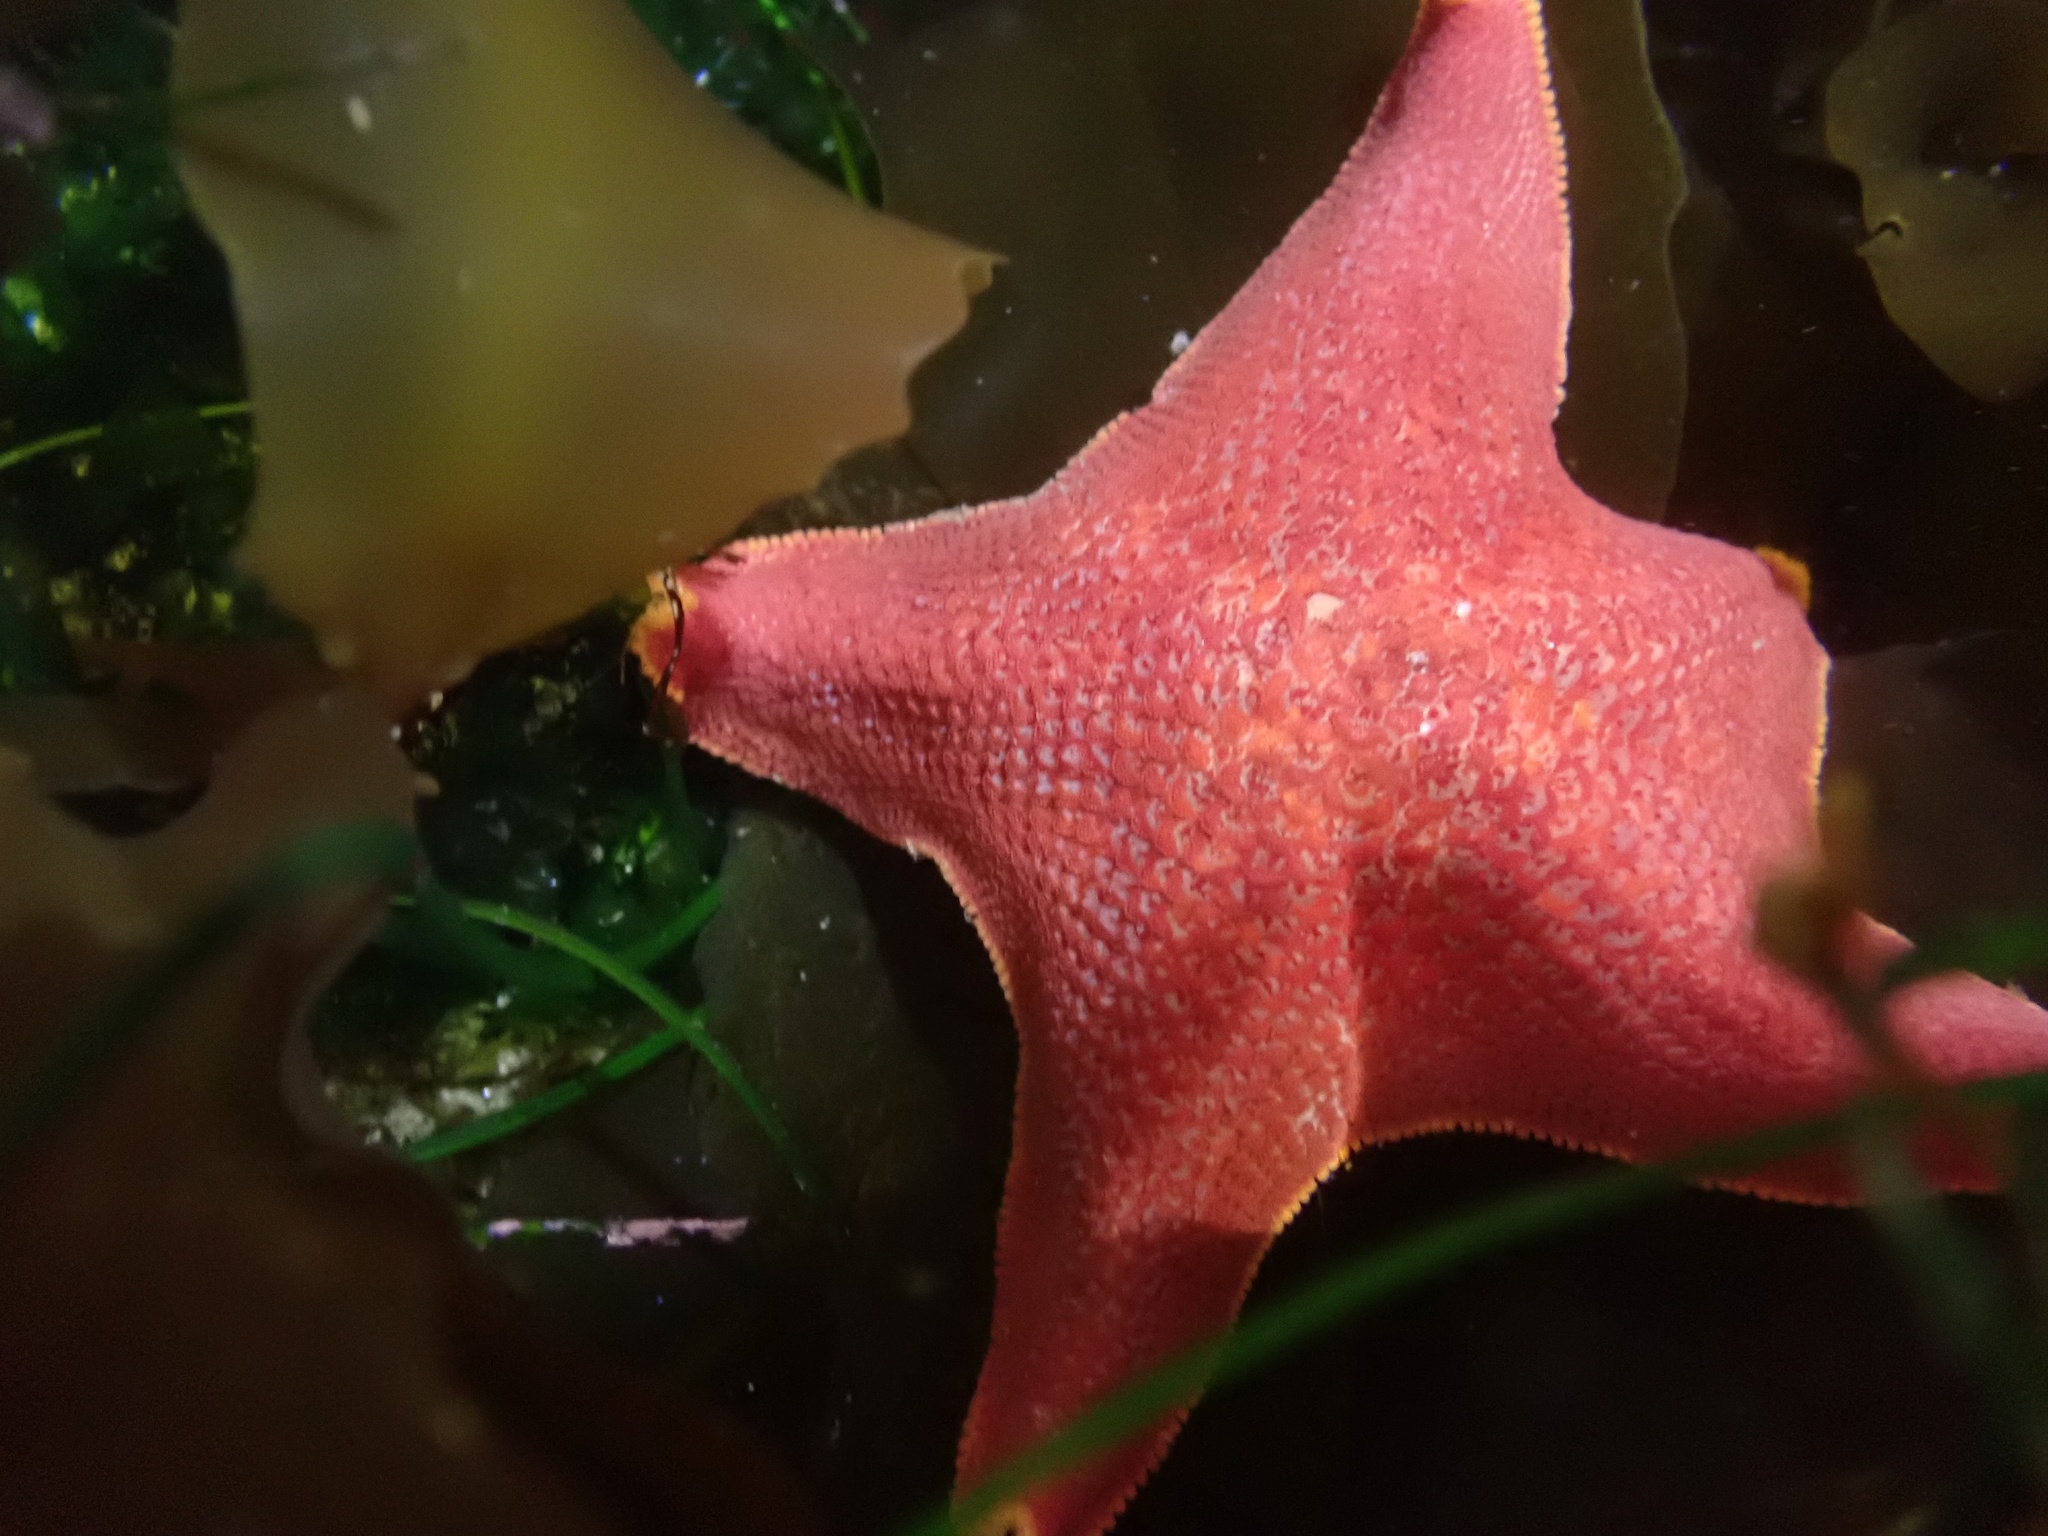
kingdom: Animalia
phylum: Echinodermata
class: Asteroidea
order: Valvatida
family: Asterinidae
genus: Patiria
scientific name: Patiria miniata
